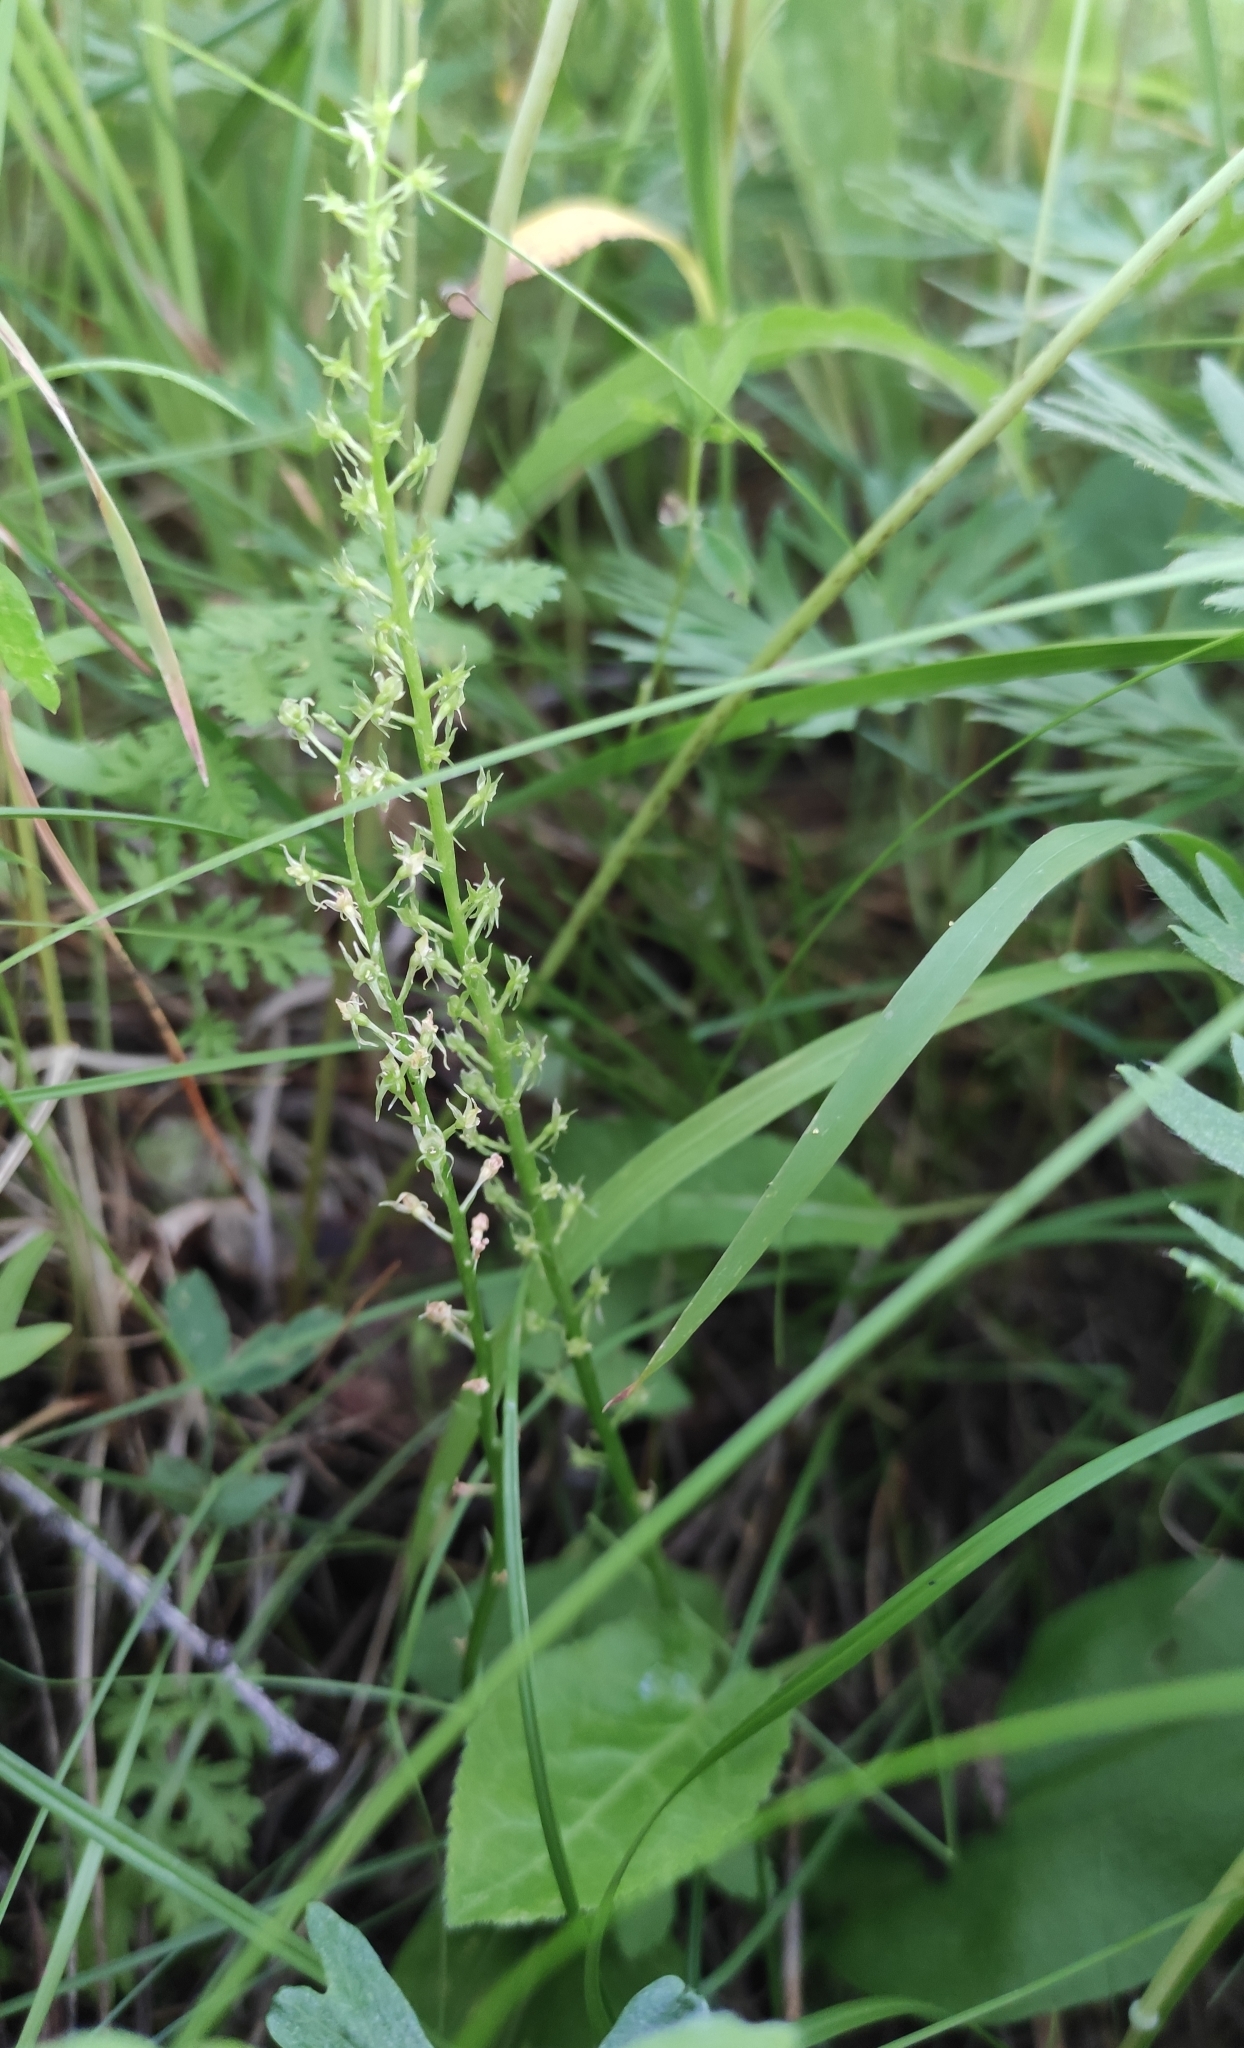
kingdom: Plantae
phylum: Tracheophyta
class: Liliopsida
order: Asparagales
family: Orchidaceae
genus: Malaxis
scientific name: Malaxis monophyllos
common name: White adder's-mouth
